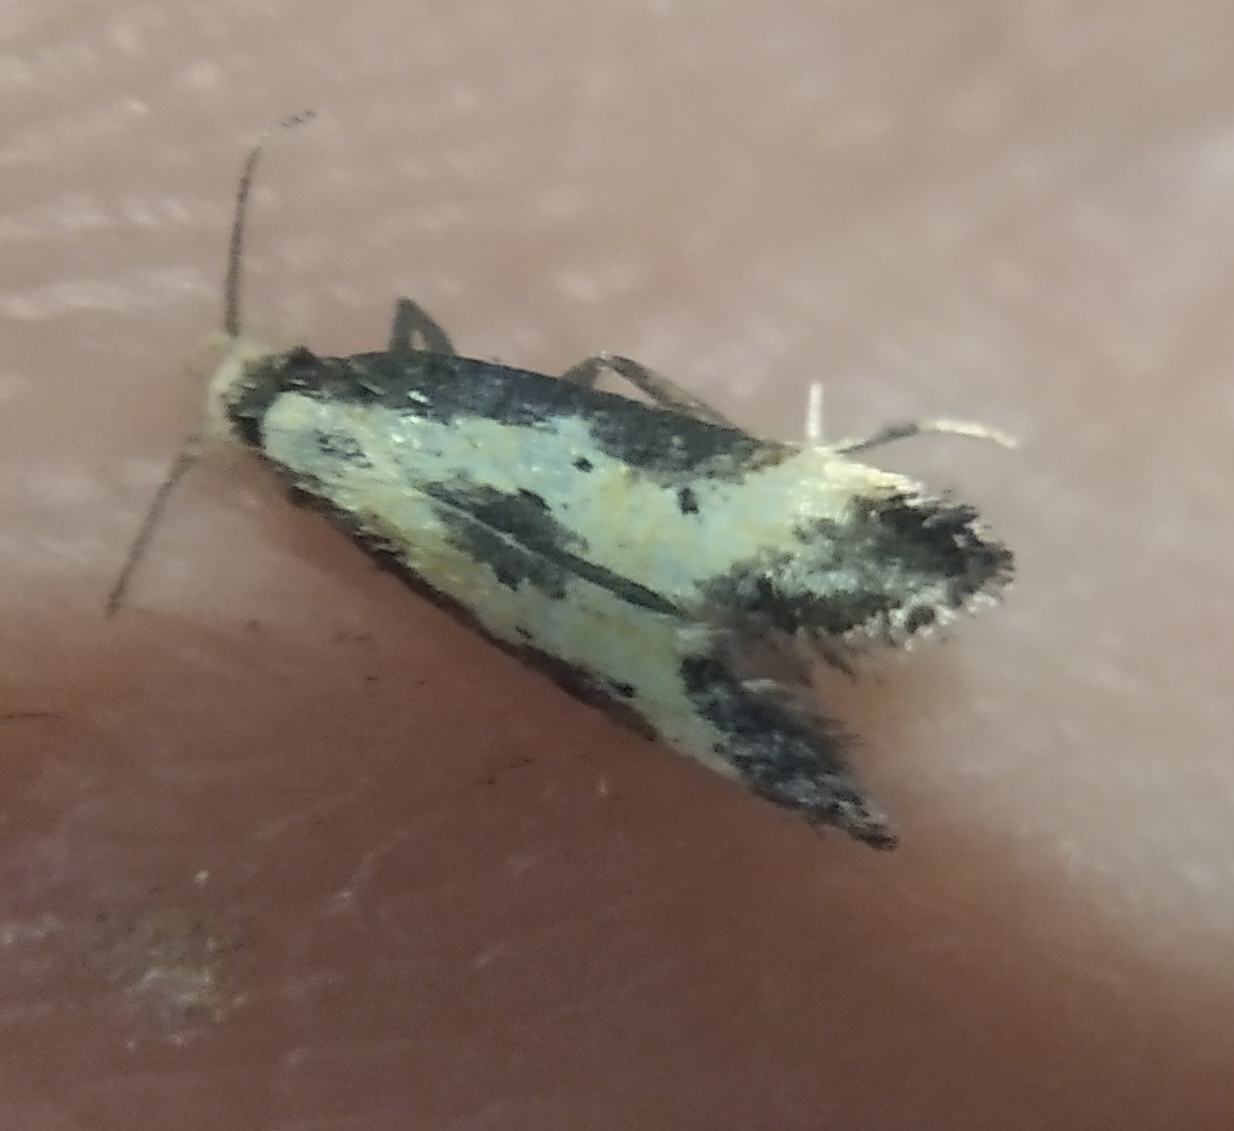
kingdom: Animalia
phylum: Arthropoda
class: Insecta
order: Lepidoptera
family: Gelechiidae
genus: Brachmia
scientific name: Brachmia dimidiella
